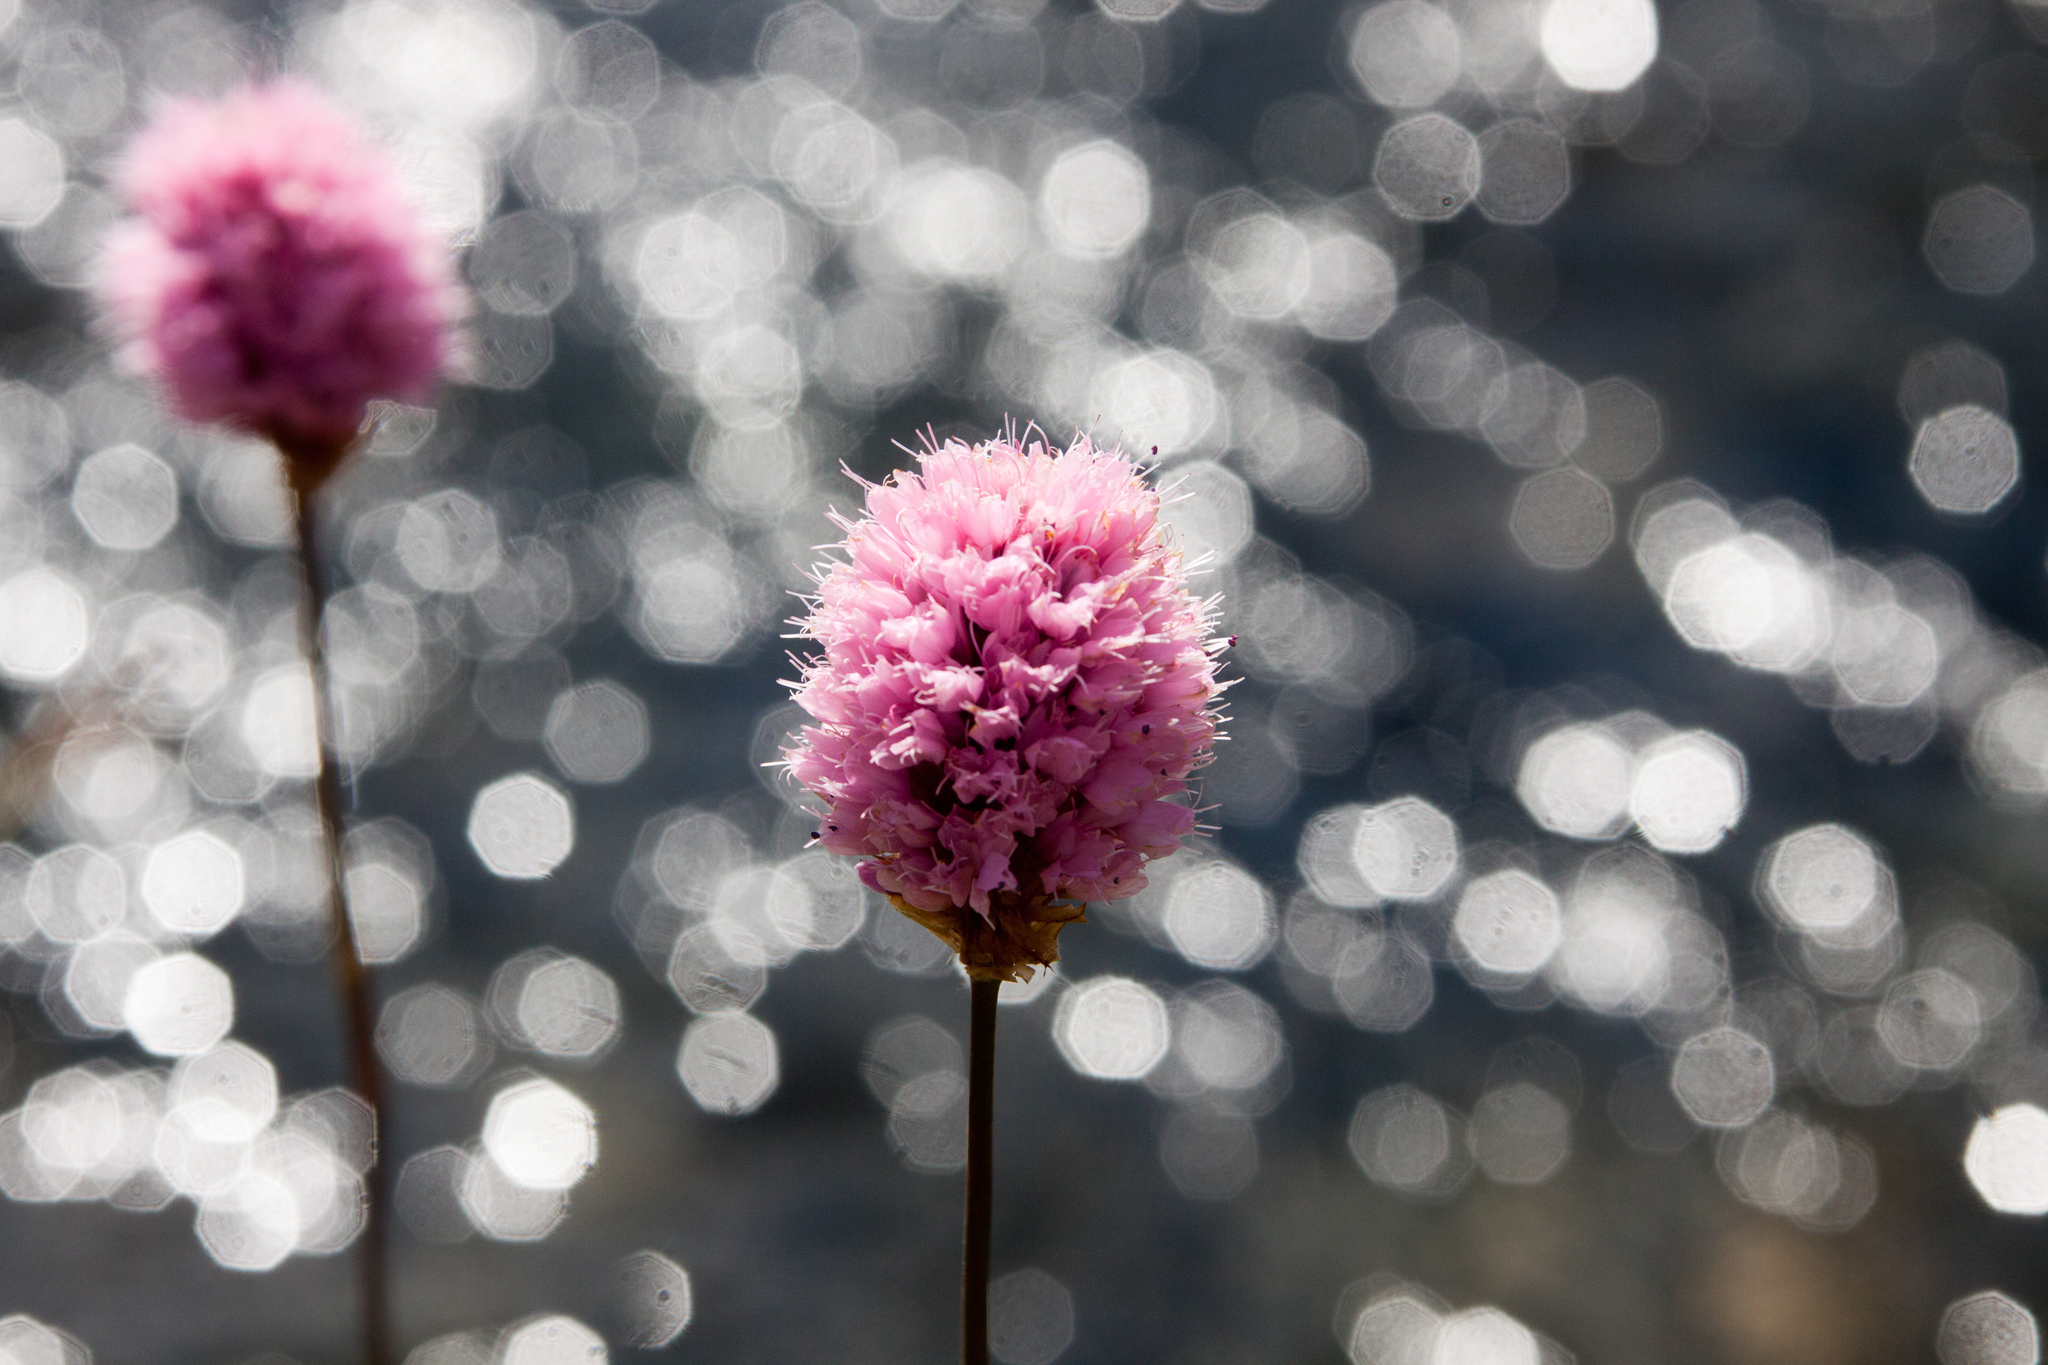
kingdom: Plantae
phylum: Tracheophyta
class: Magnoliopsida
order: Caryophyllales
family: Polygonaceae
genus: Bistorta
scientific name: Bistorta carnea
